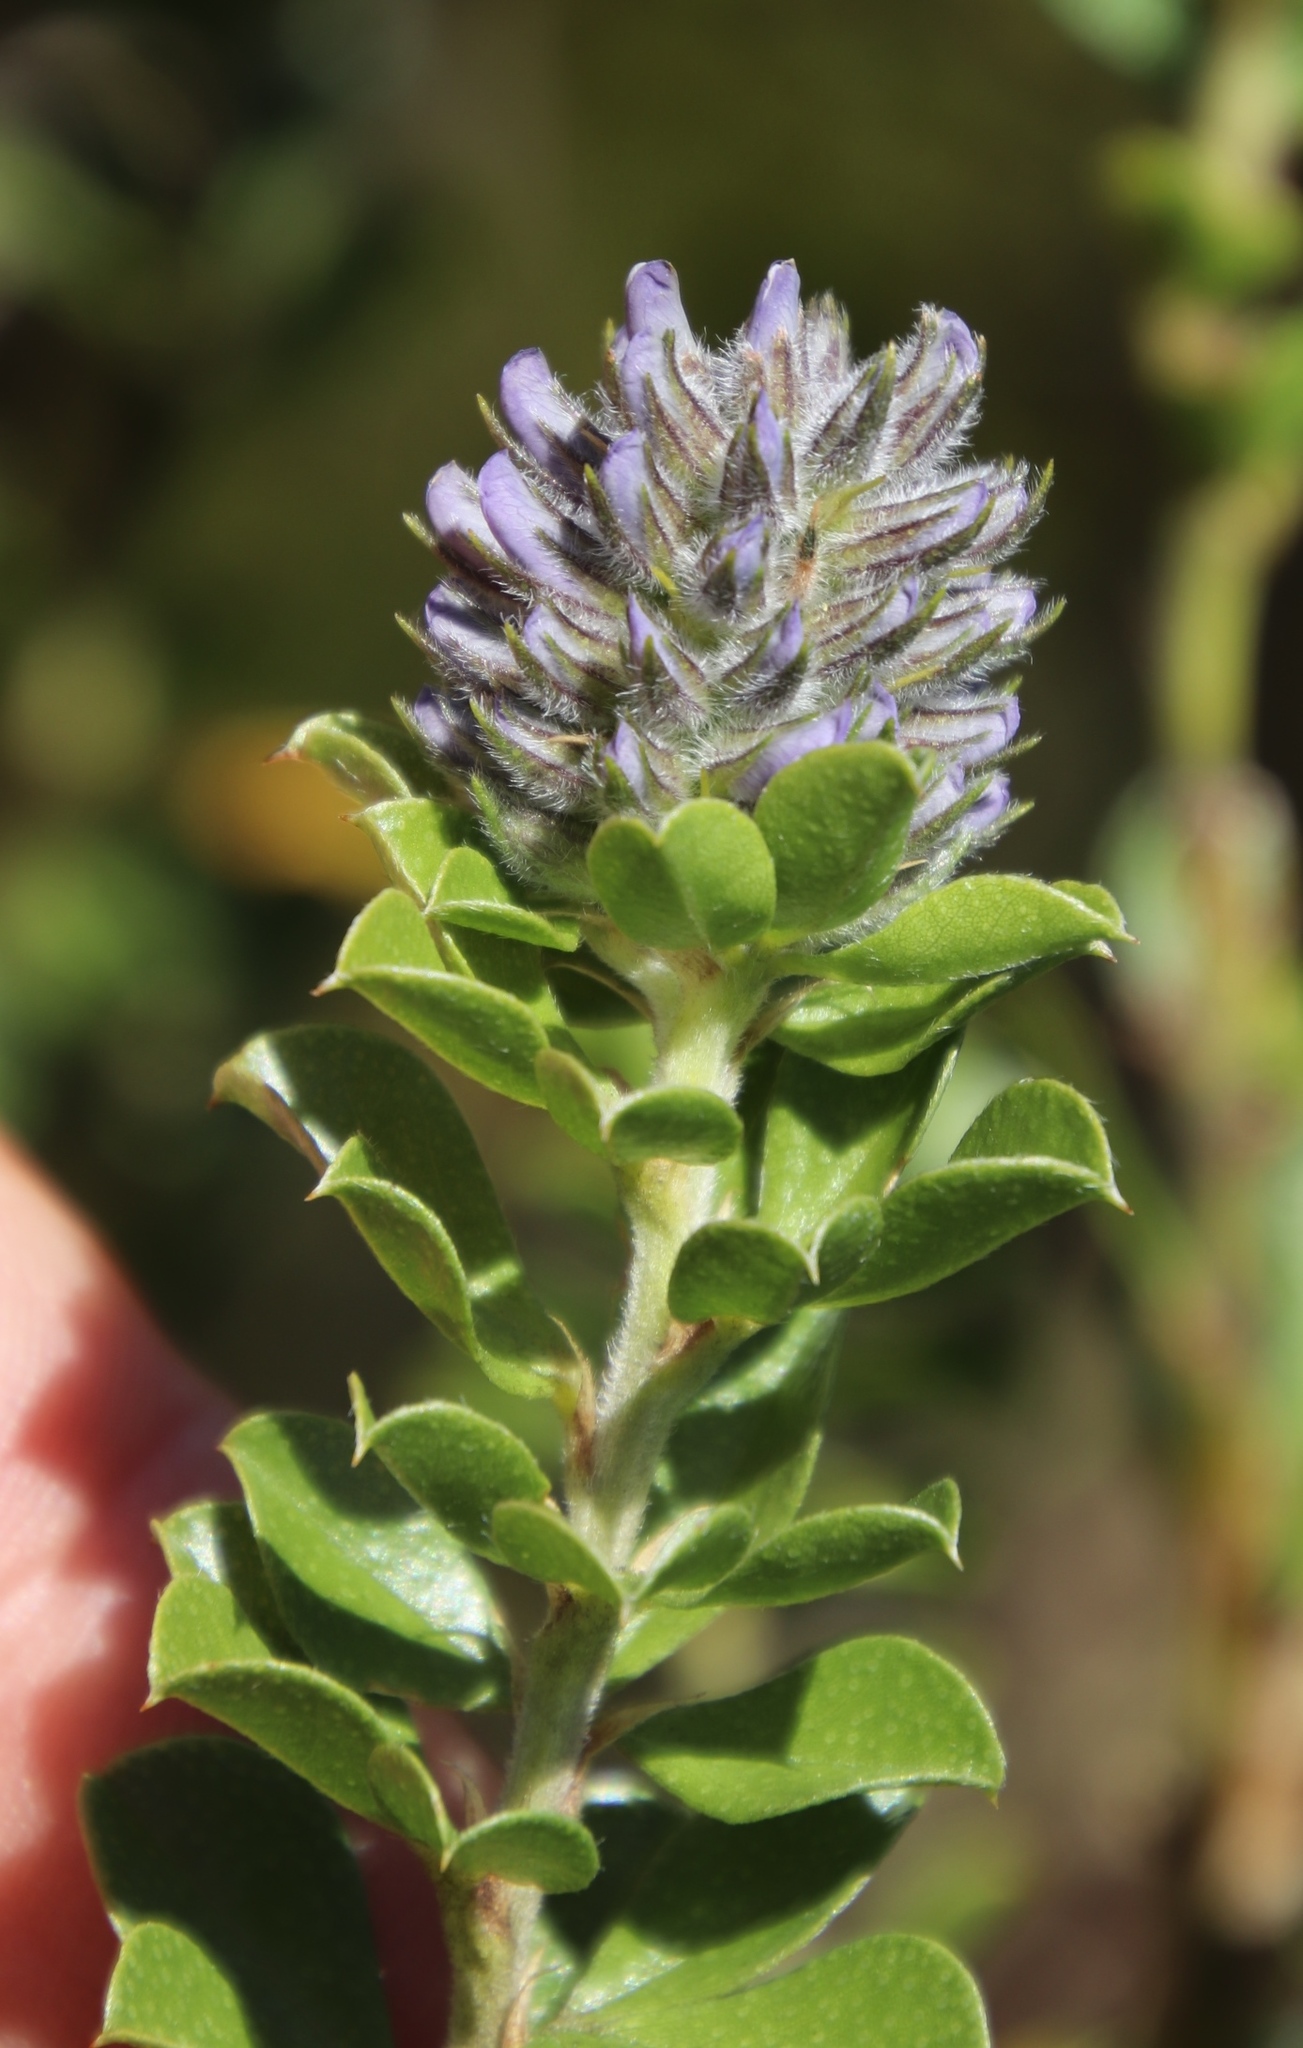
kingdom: Plantae
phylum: Tracheophyta
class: Magnoliopsida
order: Fabales
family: Fabaceae
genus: Psoralea
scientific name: Psoralea bracteolata
